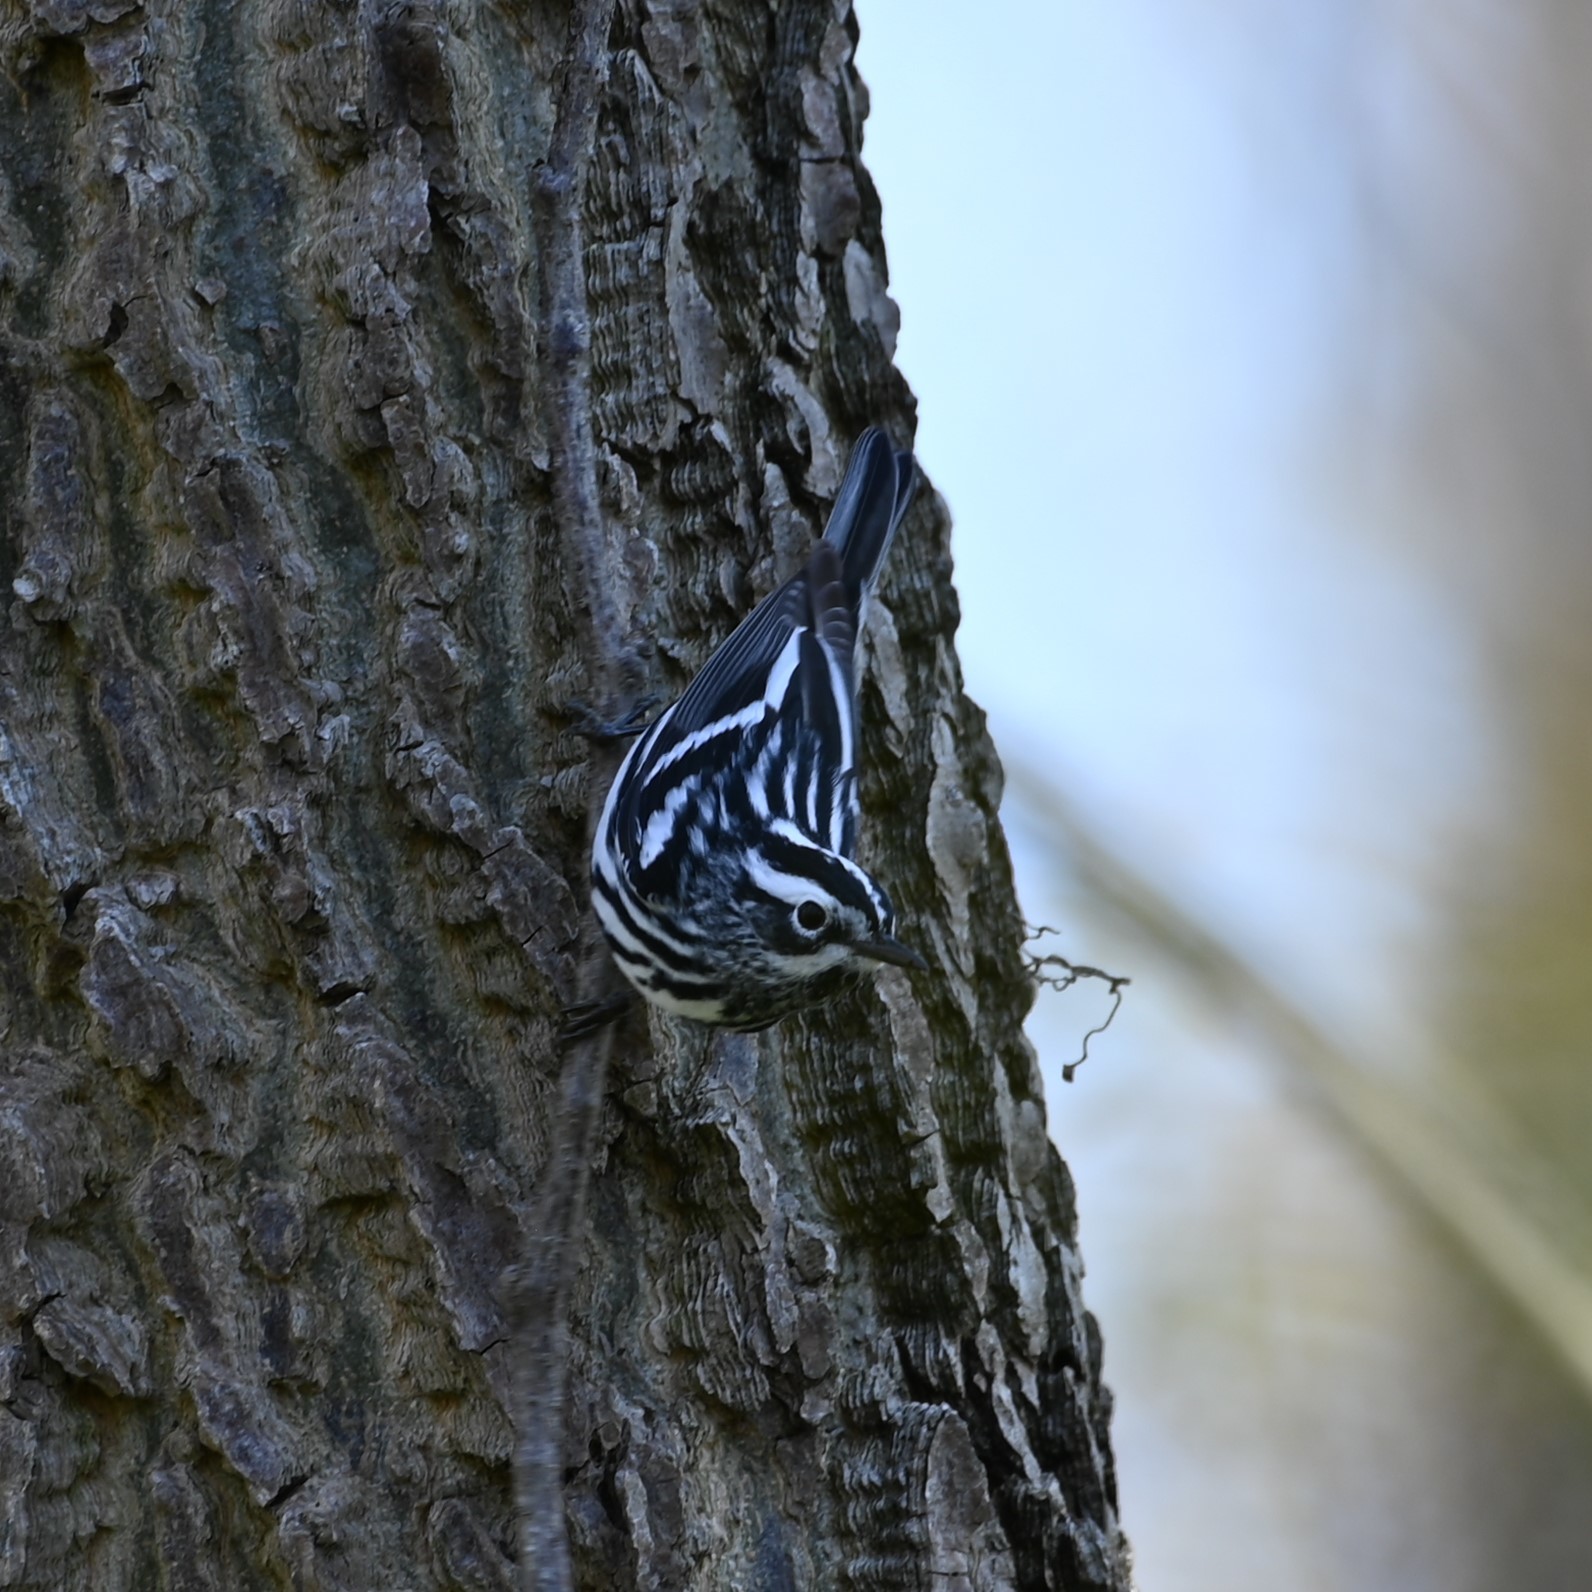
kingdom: Animalia
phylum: Chordata
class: Aves
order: Passeriformes
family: Parulidae
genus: Mniotilta
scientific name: Mniotilta varia
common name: Black-and-white warbler
